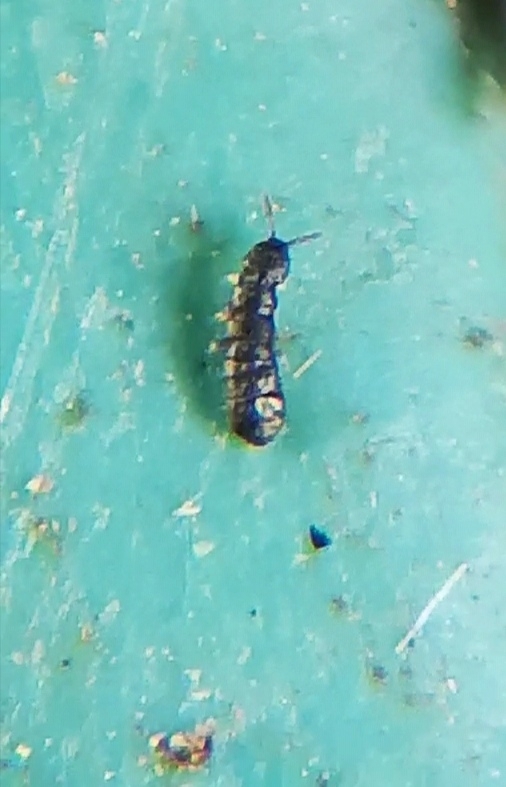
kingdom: Animalia
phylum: Arthropoda
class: Collembola
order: Entomobryomorpha
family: Isotomidae
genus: Anurophorus
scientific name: Anurophorus laricis
